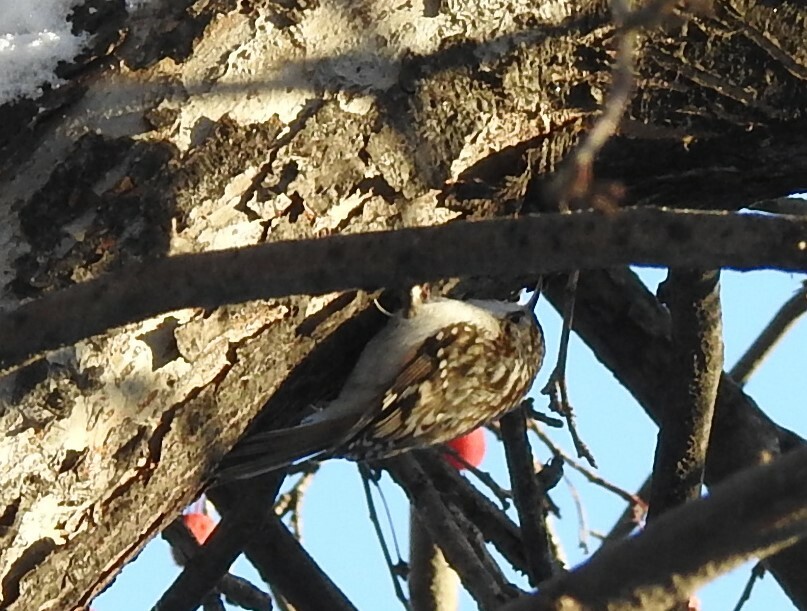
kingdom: Animalia
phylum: Chordata
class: Aves
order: Passeriformes
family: Certhiidae
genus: Certhia
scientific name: Certhia familiaris
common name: Eurasian treecreeper
